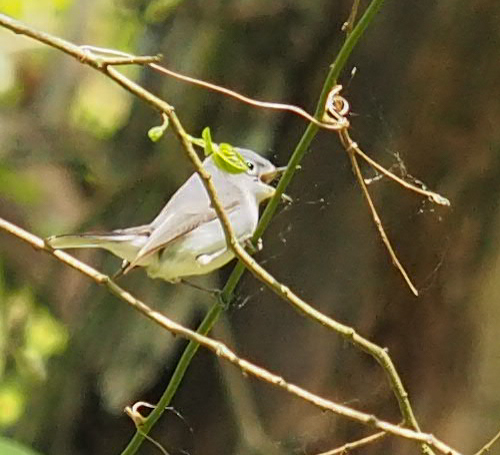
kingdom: Animalia
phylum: Chordata
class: Aves
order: Passeriformes
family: Polioptilidae
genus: Polioptila
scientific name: Polioptila caerulea
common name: Blue-gray gnatcatcher
